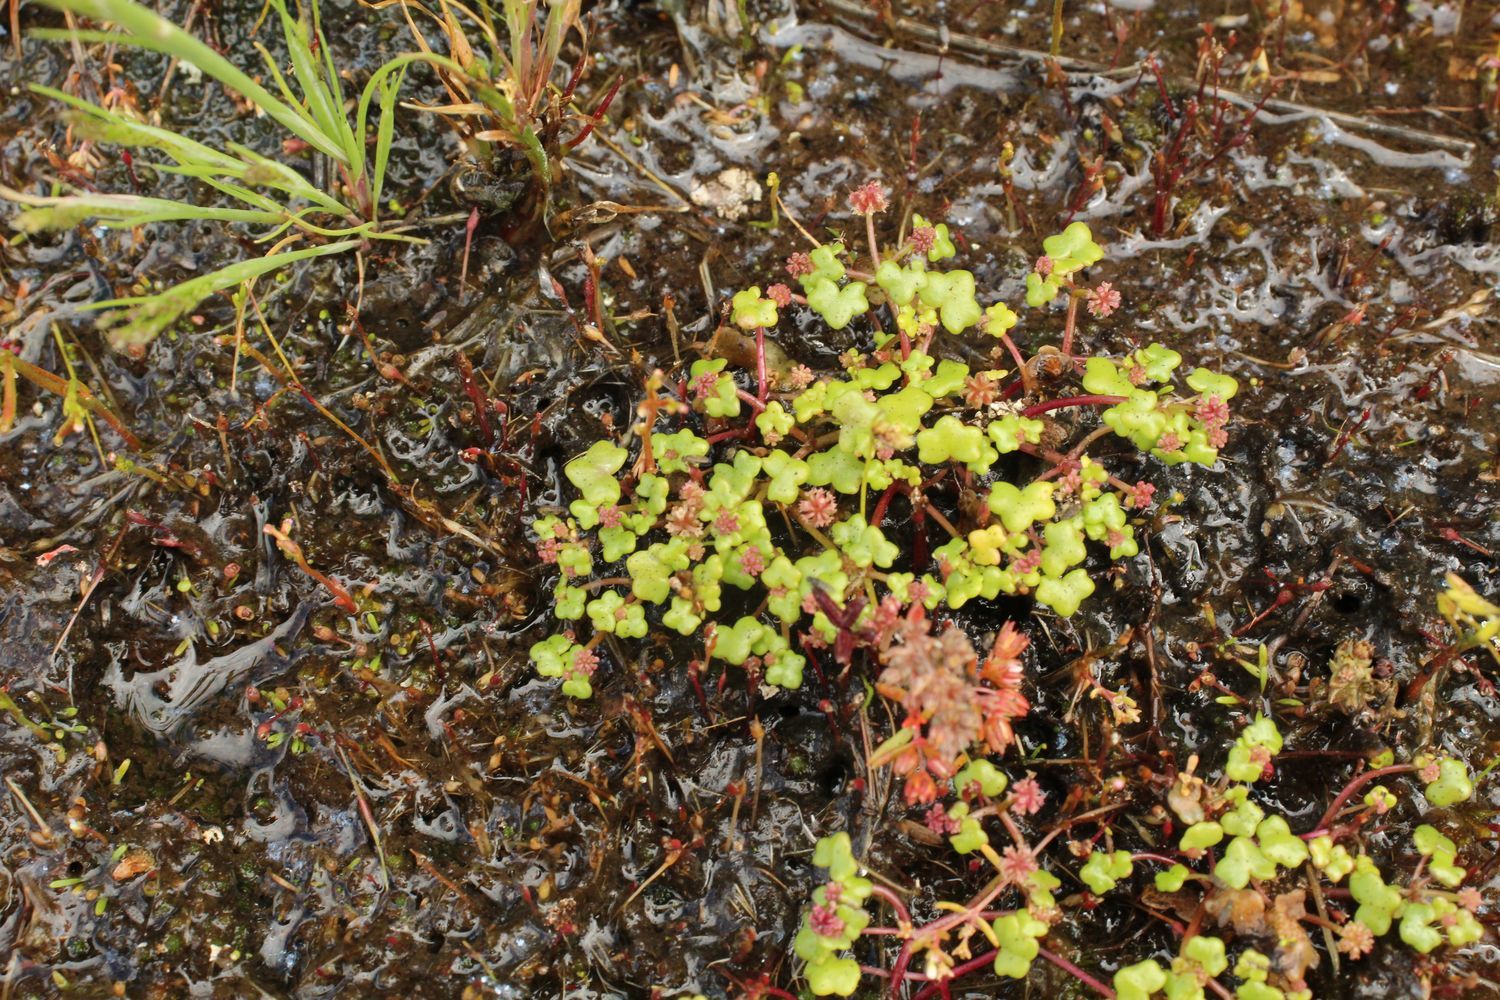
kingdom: Plantae
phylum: Tracheophyta
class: Magnoliopsida
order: Apiales
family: Araliaceae
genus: Hydrocotyle
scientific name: Hydrocotyle alata
